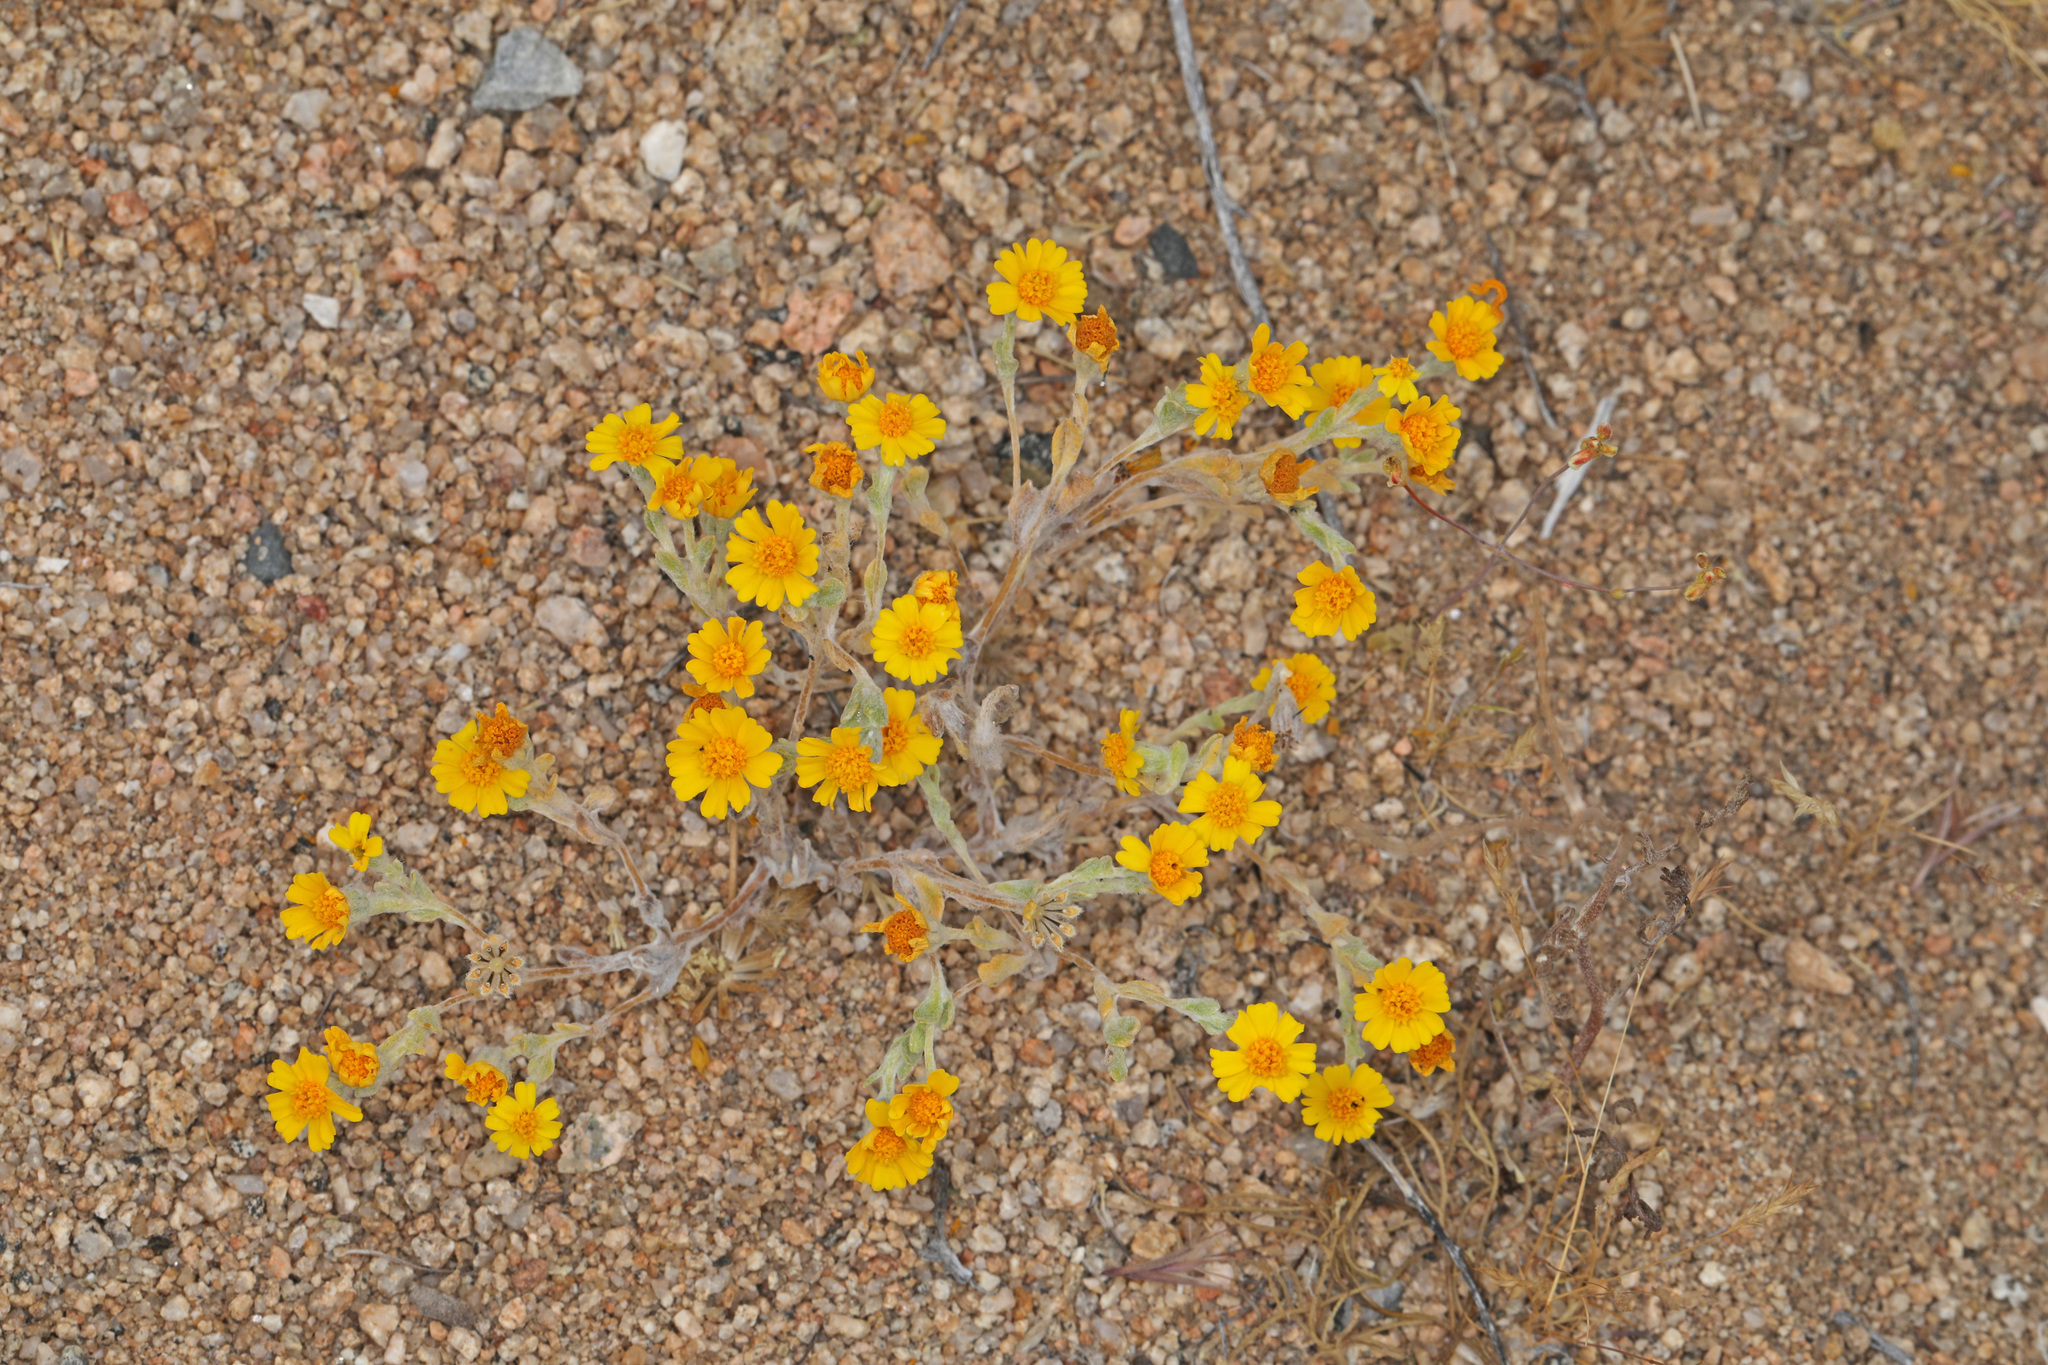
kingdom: Plantae
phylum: Tracheophyta
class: Magnoliopsida
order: Asterales
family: Asteraceae
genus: Eriophyllum
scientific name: Eriophyllum wallacei
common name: Wallace's woolly daisy
